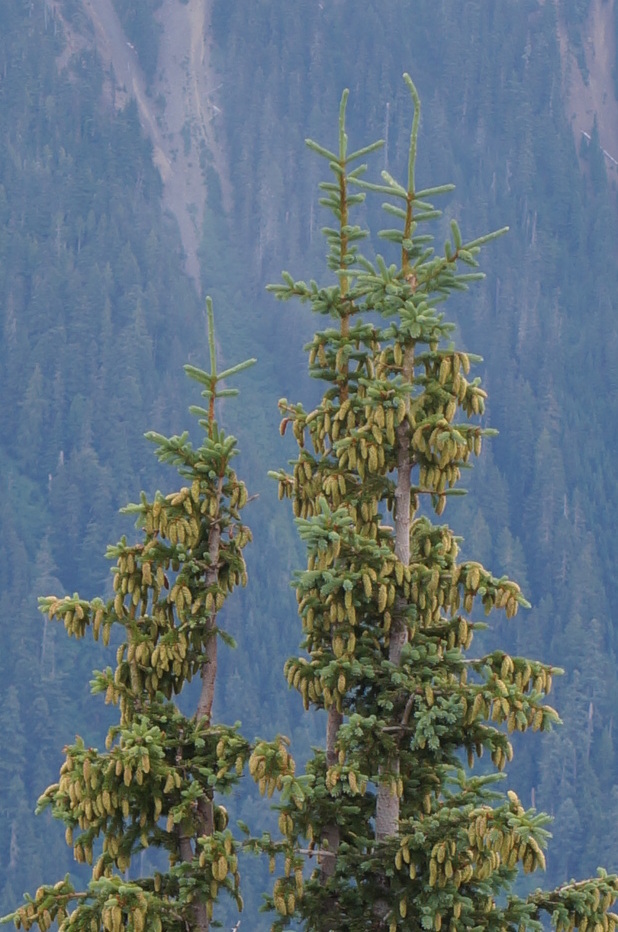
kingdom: Plantae
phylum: Tracheophyta
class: Pinopsida
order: Pinales
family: Pinaceae
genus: Picea
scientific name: Picea engelmannii
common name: Engelmann spruce
